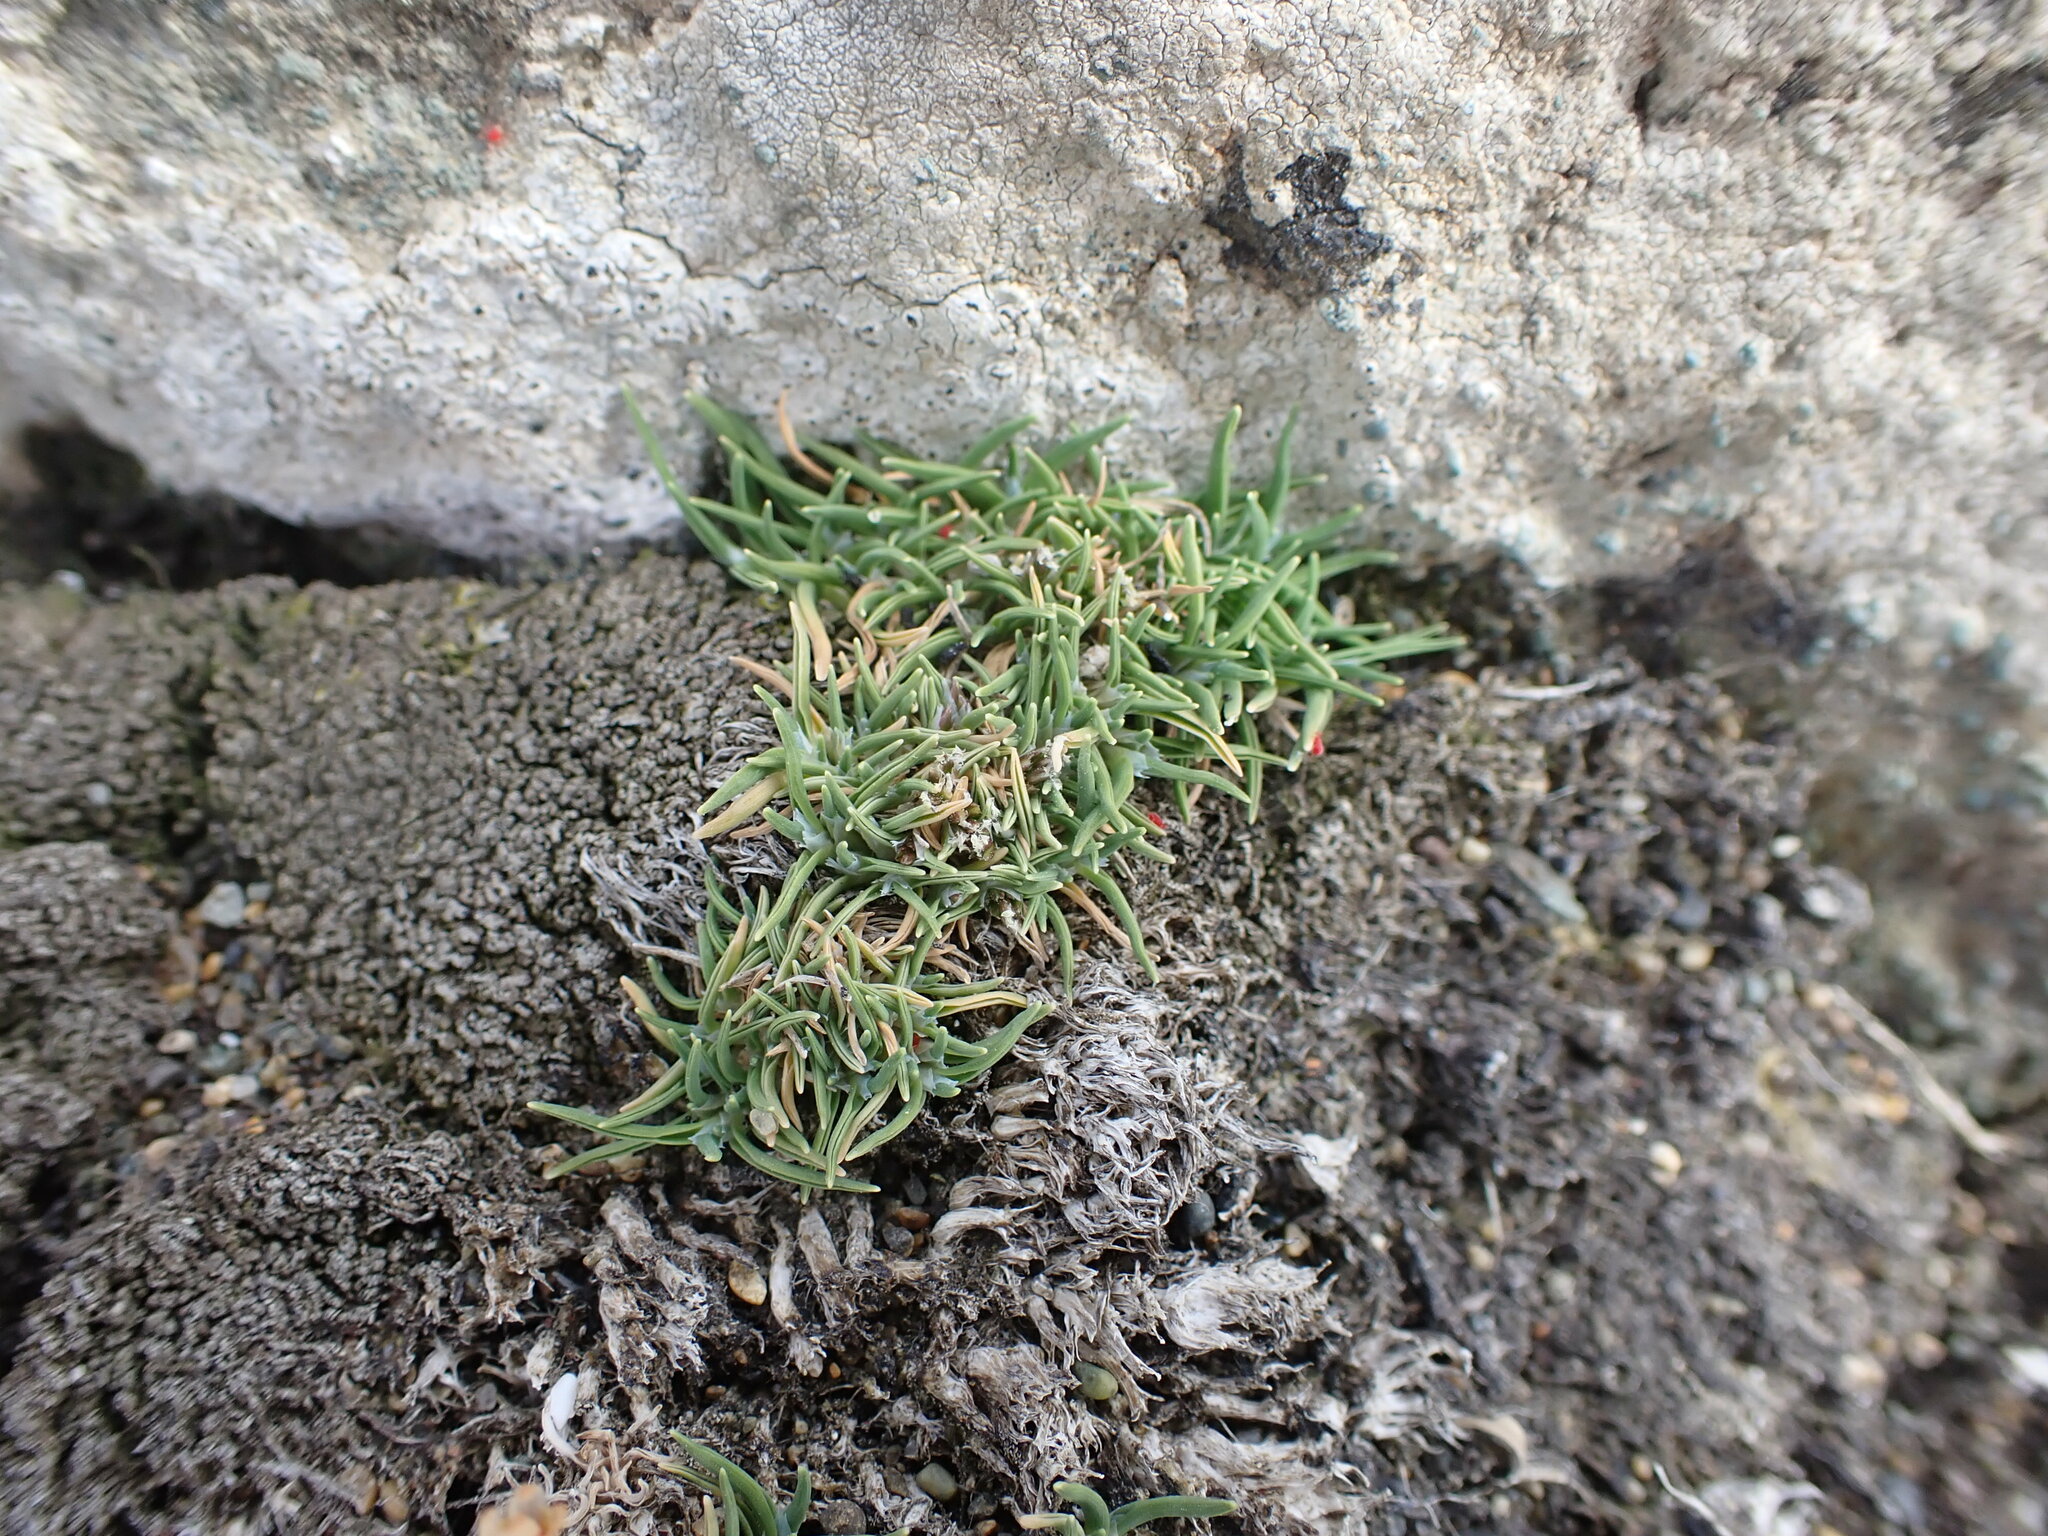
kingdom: Plantae
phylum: Tracheophyta
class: Liliopsida
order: Poales
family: Poaceae
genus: Agrostis
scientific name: Agrostis muscosa
